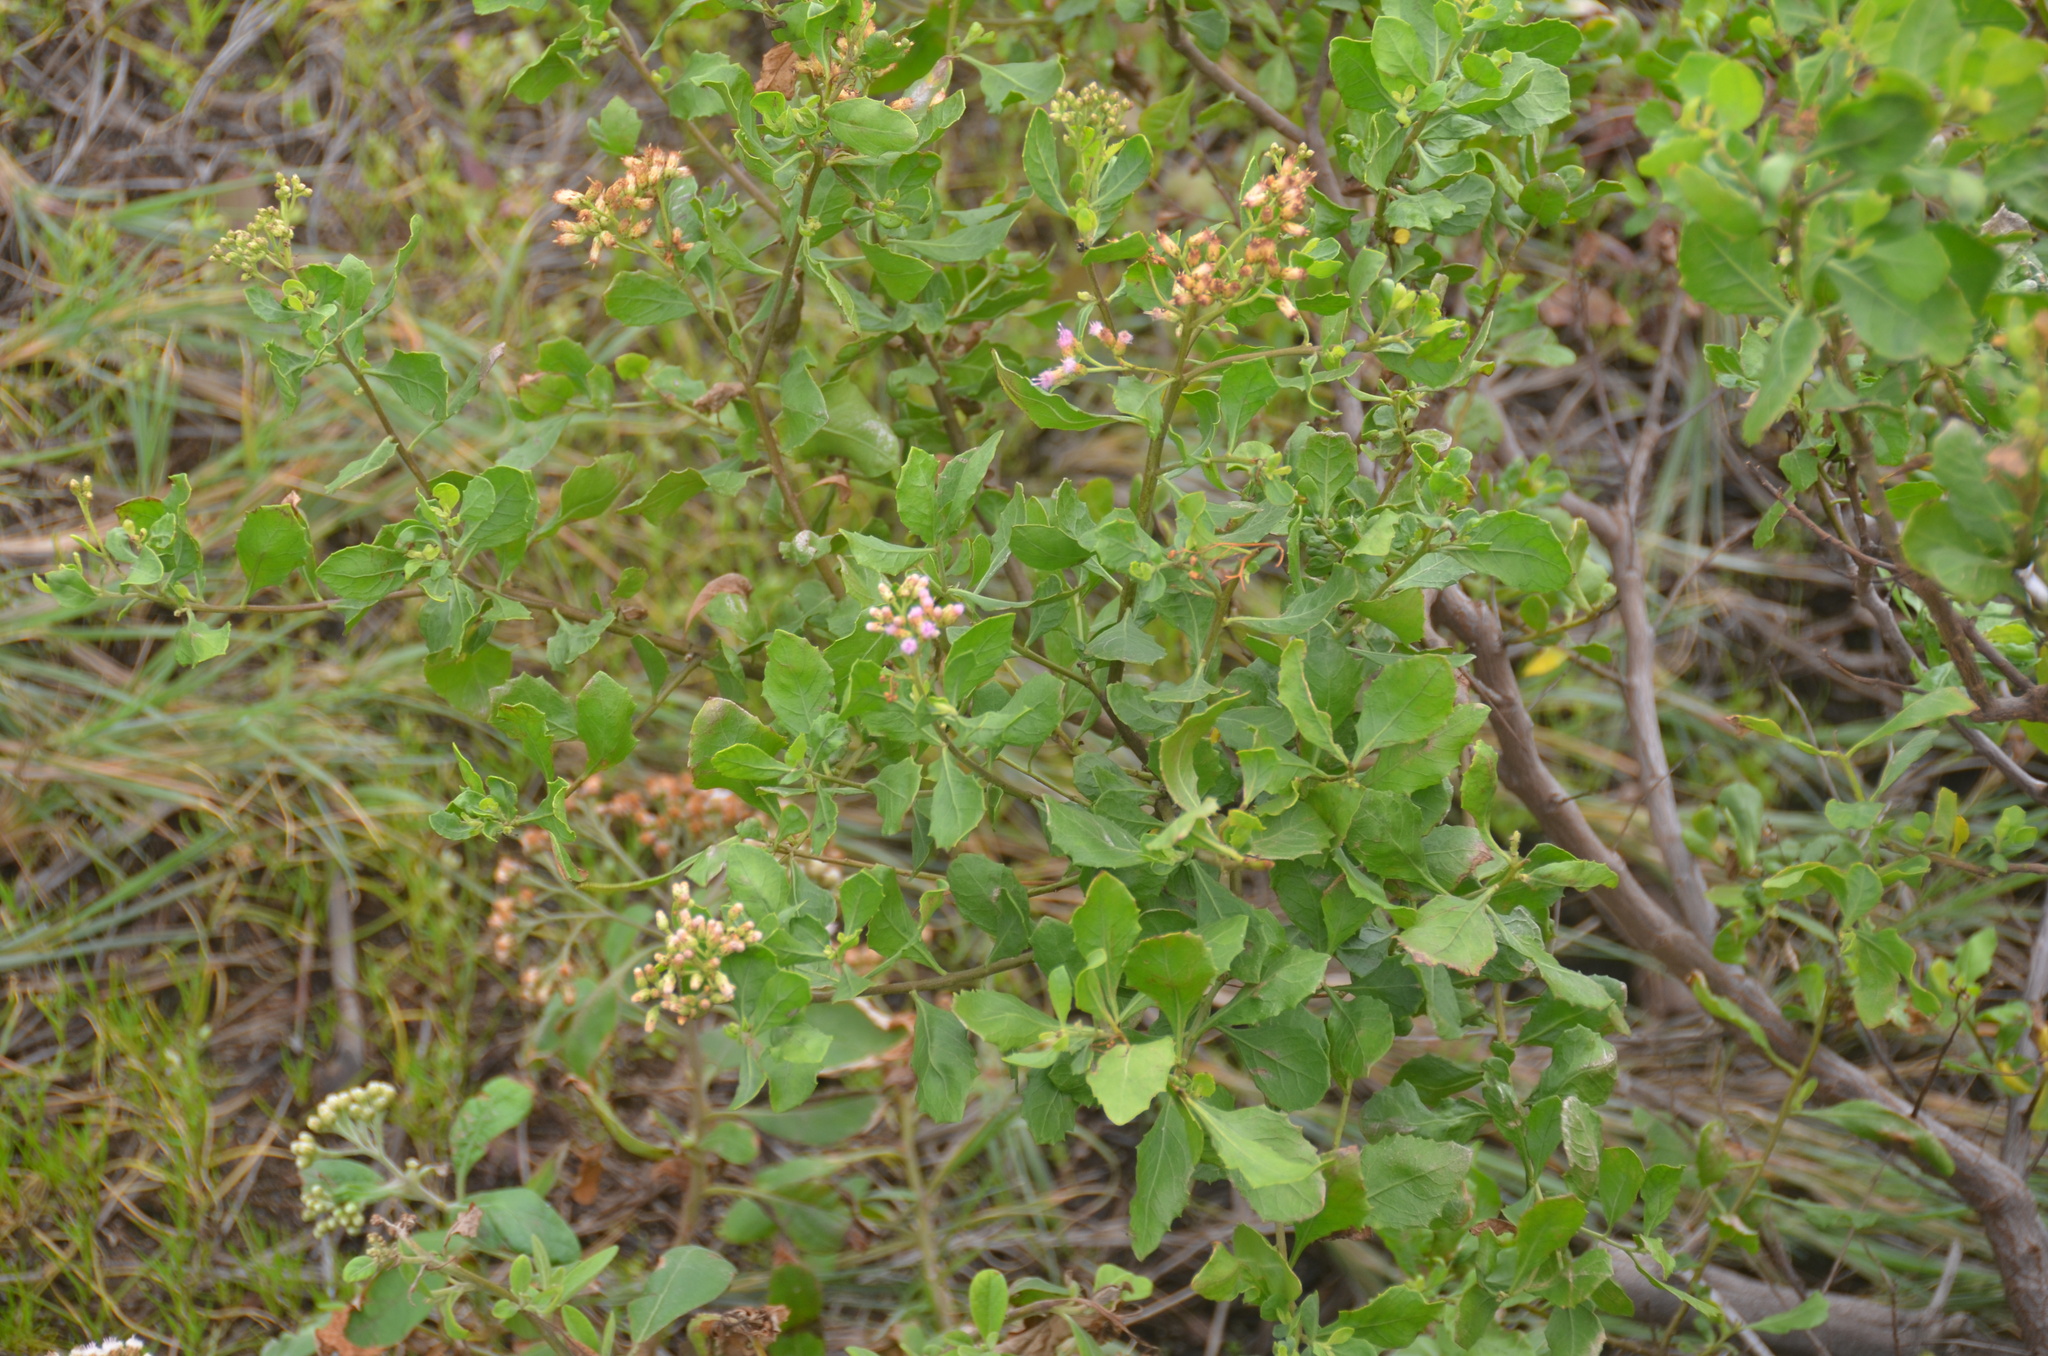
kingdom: Plantae
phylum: Tracheophyta
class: Magnoliopsida
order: Asterales
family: Asteraceae
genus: Pluchea
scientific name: Pluchea indica
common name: Indian fleabane
